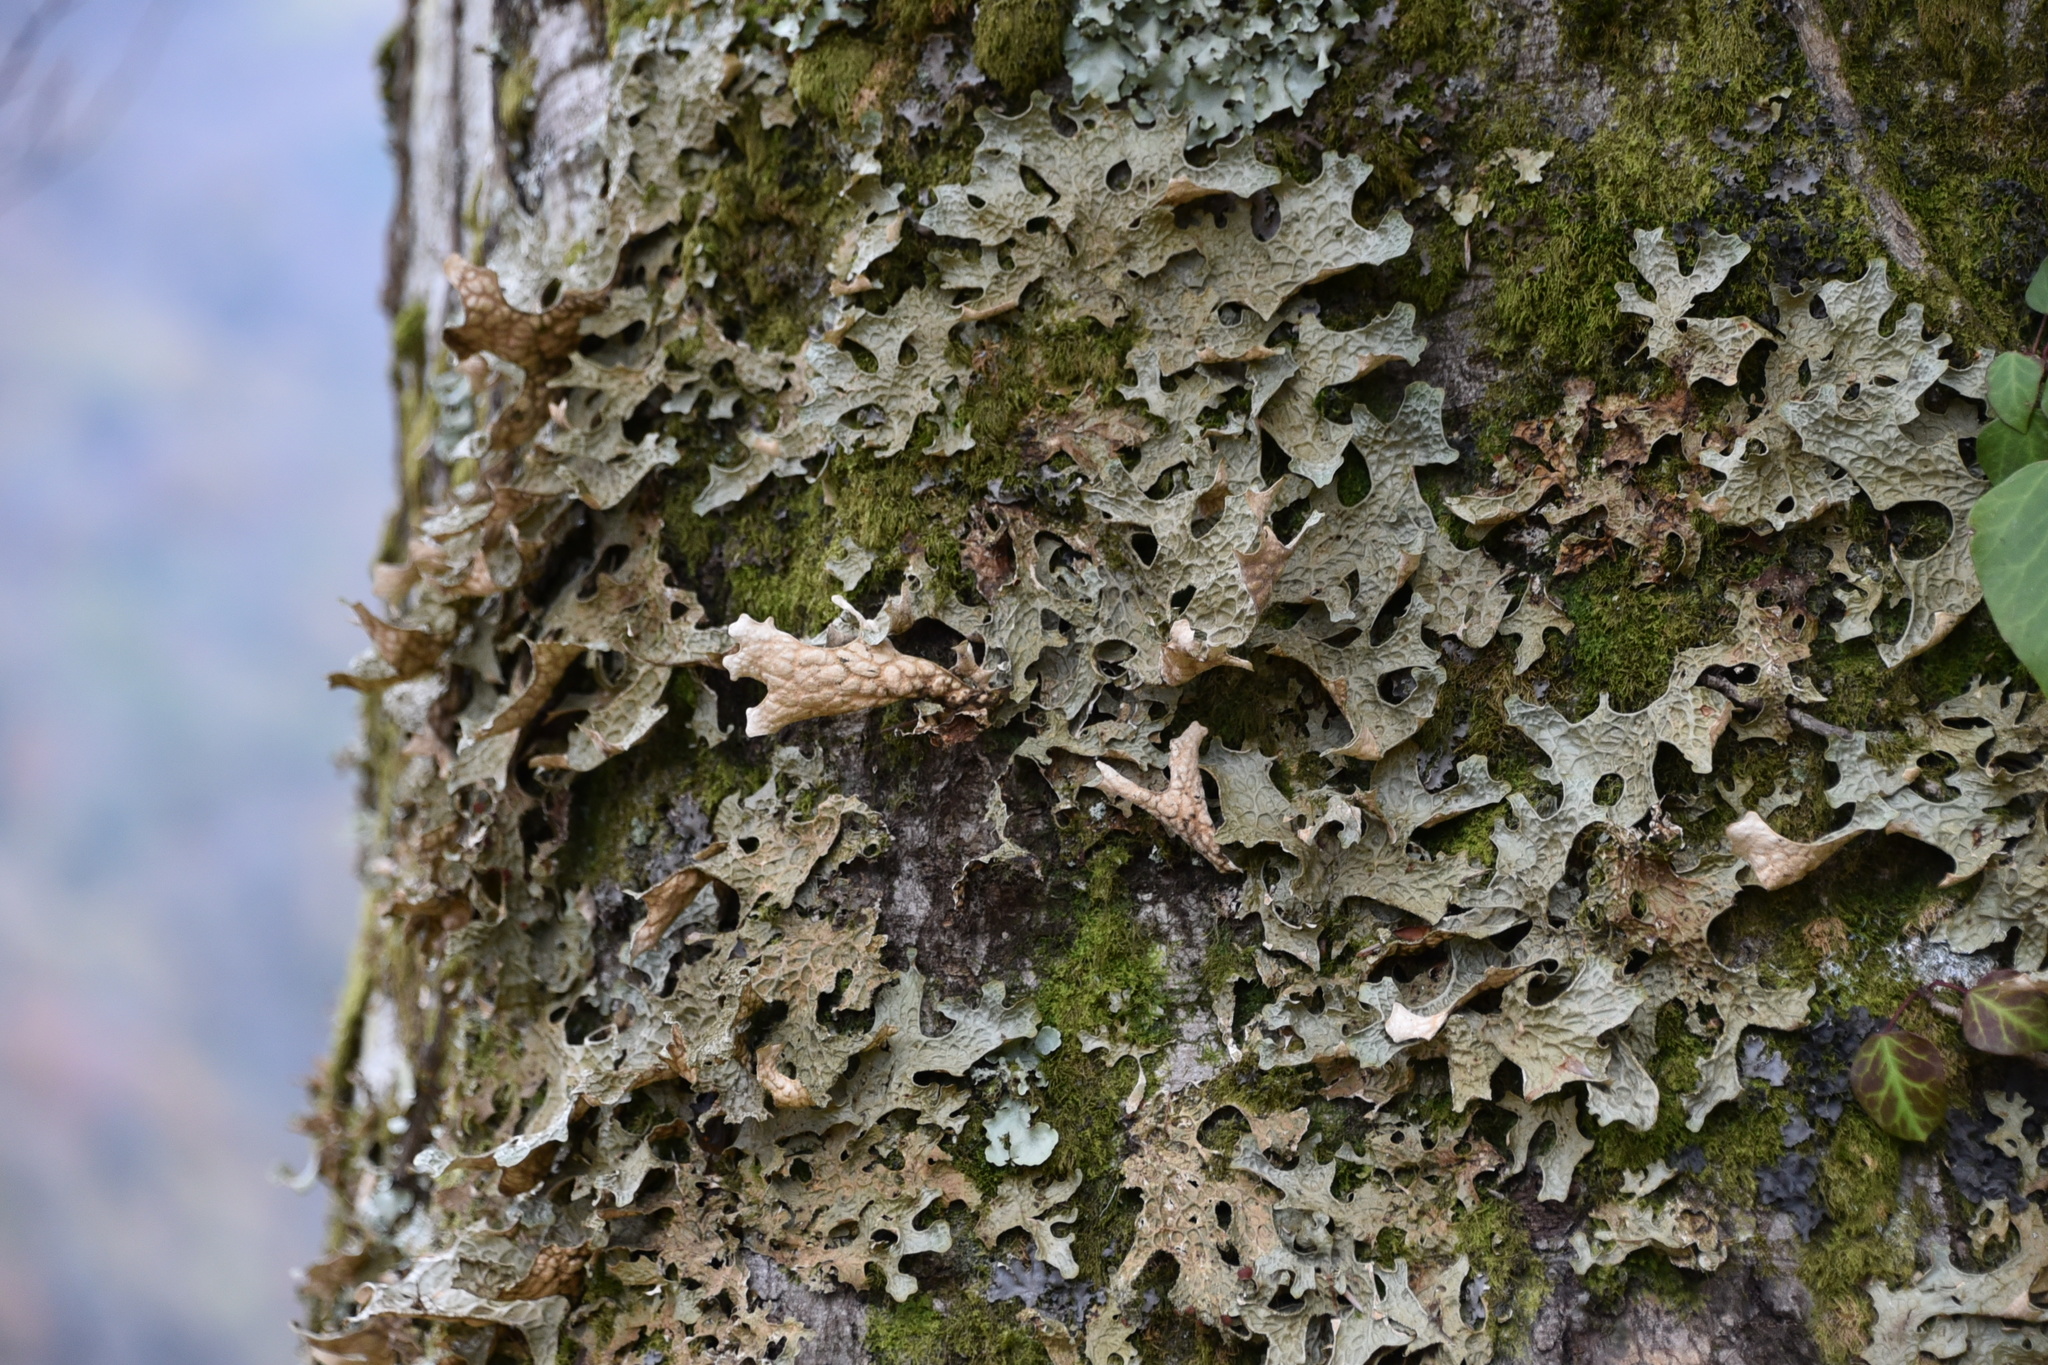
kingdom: Fungi
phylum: Ascomycota
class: Lecanoromycetes
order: Peltigerales
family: Lobariaceae
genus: Lobaria
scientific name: Lobaria pulmonaria
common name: Lungwort
